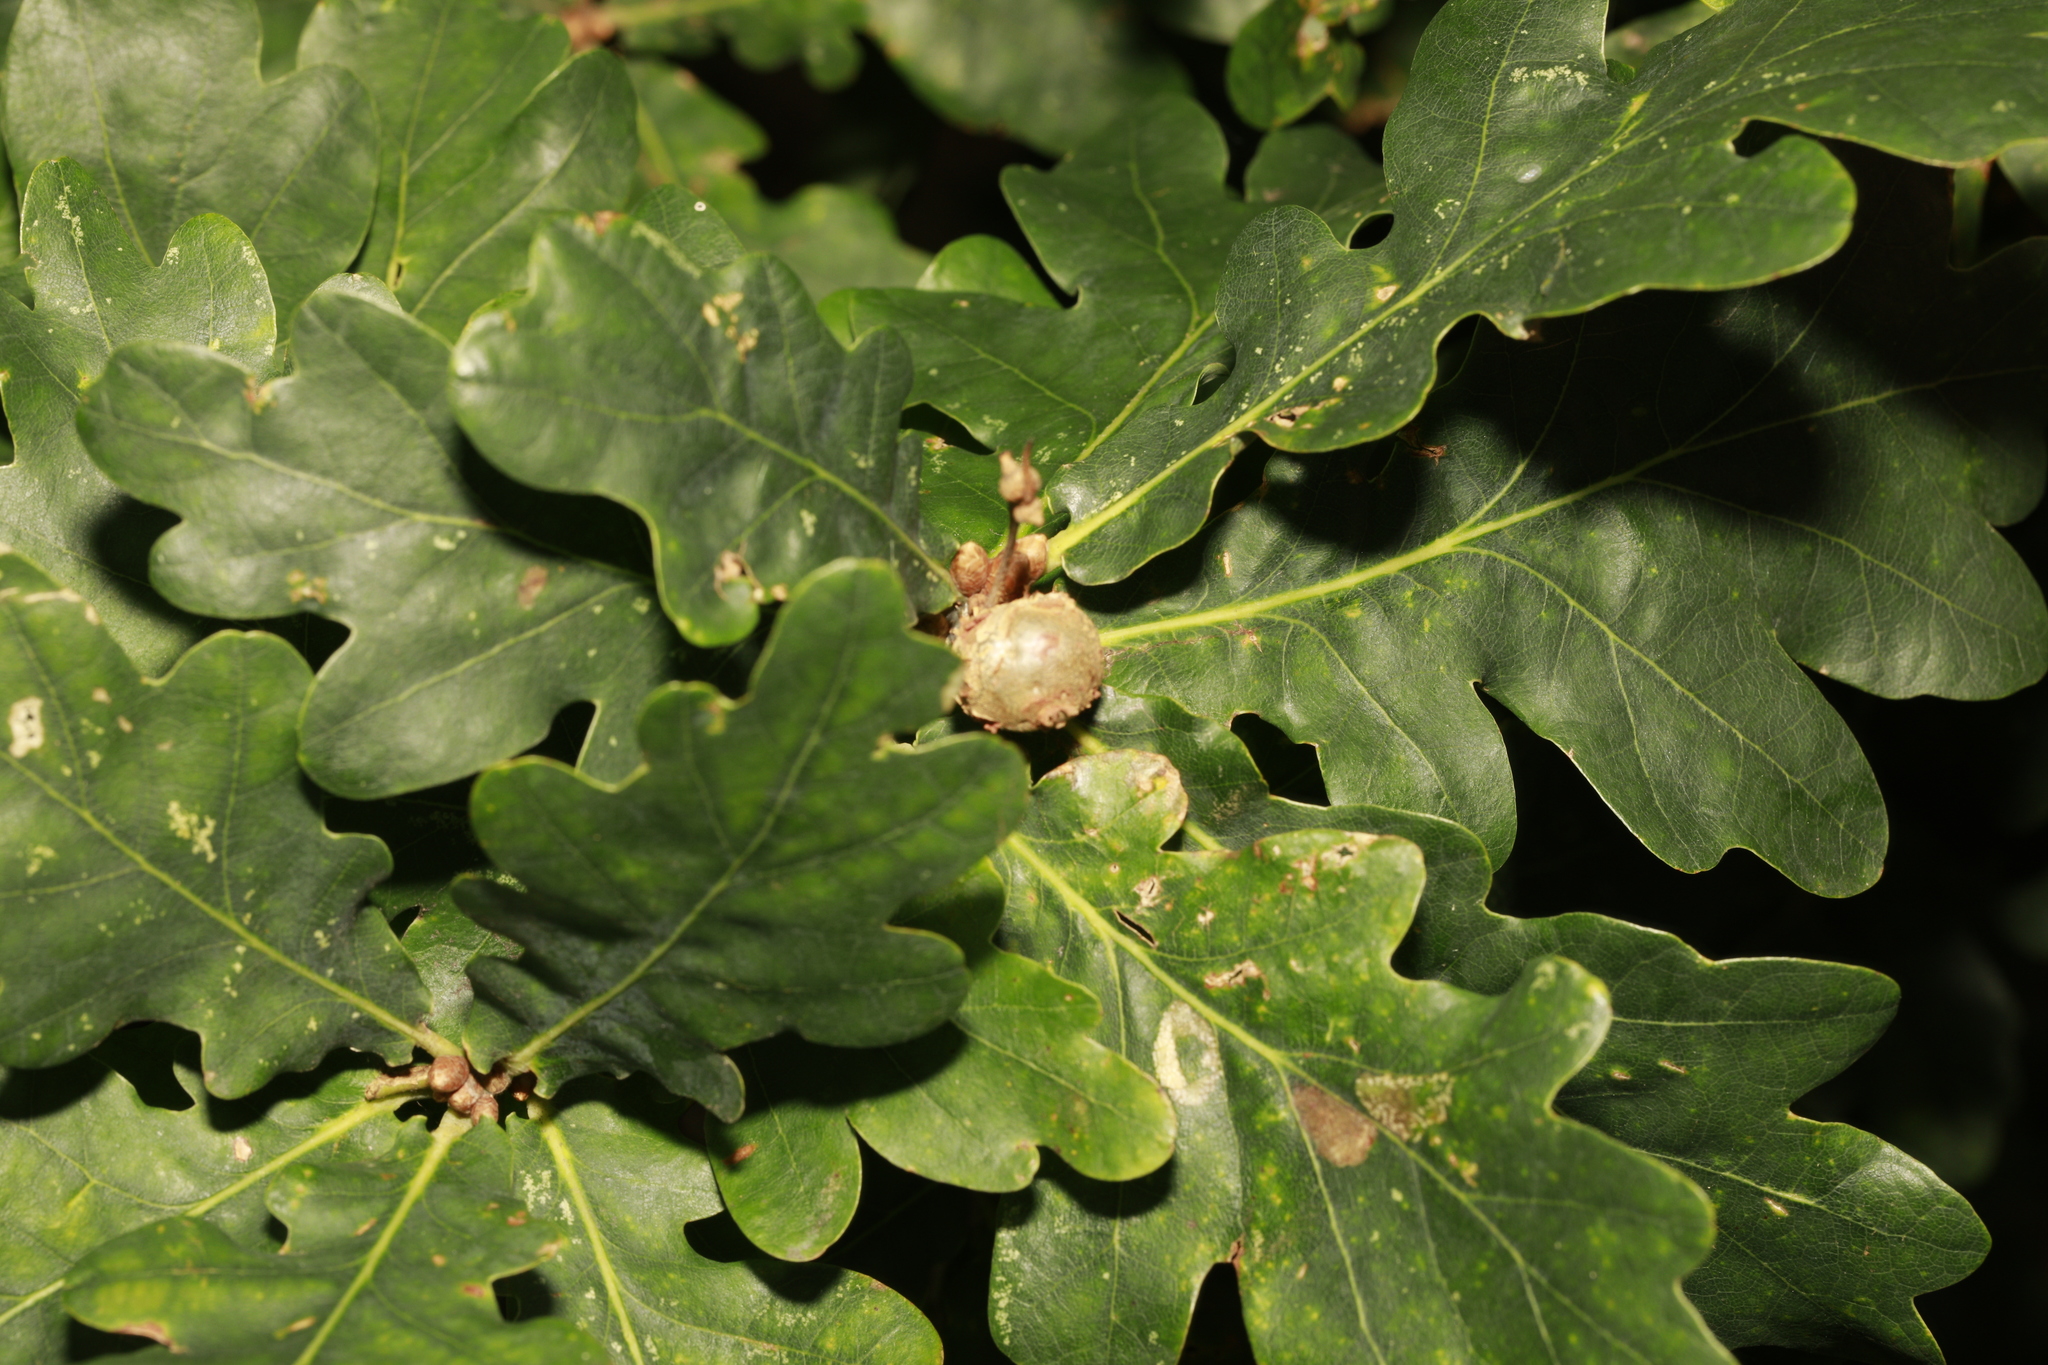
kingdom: Animalia
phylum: Arthropoda
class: Insecta
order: Hymenoptera
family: Cynipidae
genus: Andricus
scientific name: Andricus lignicolus
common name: Cola-nut gall
